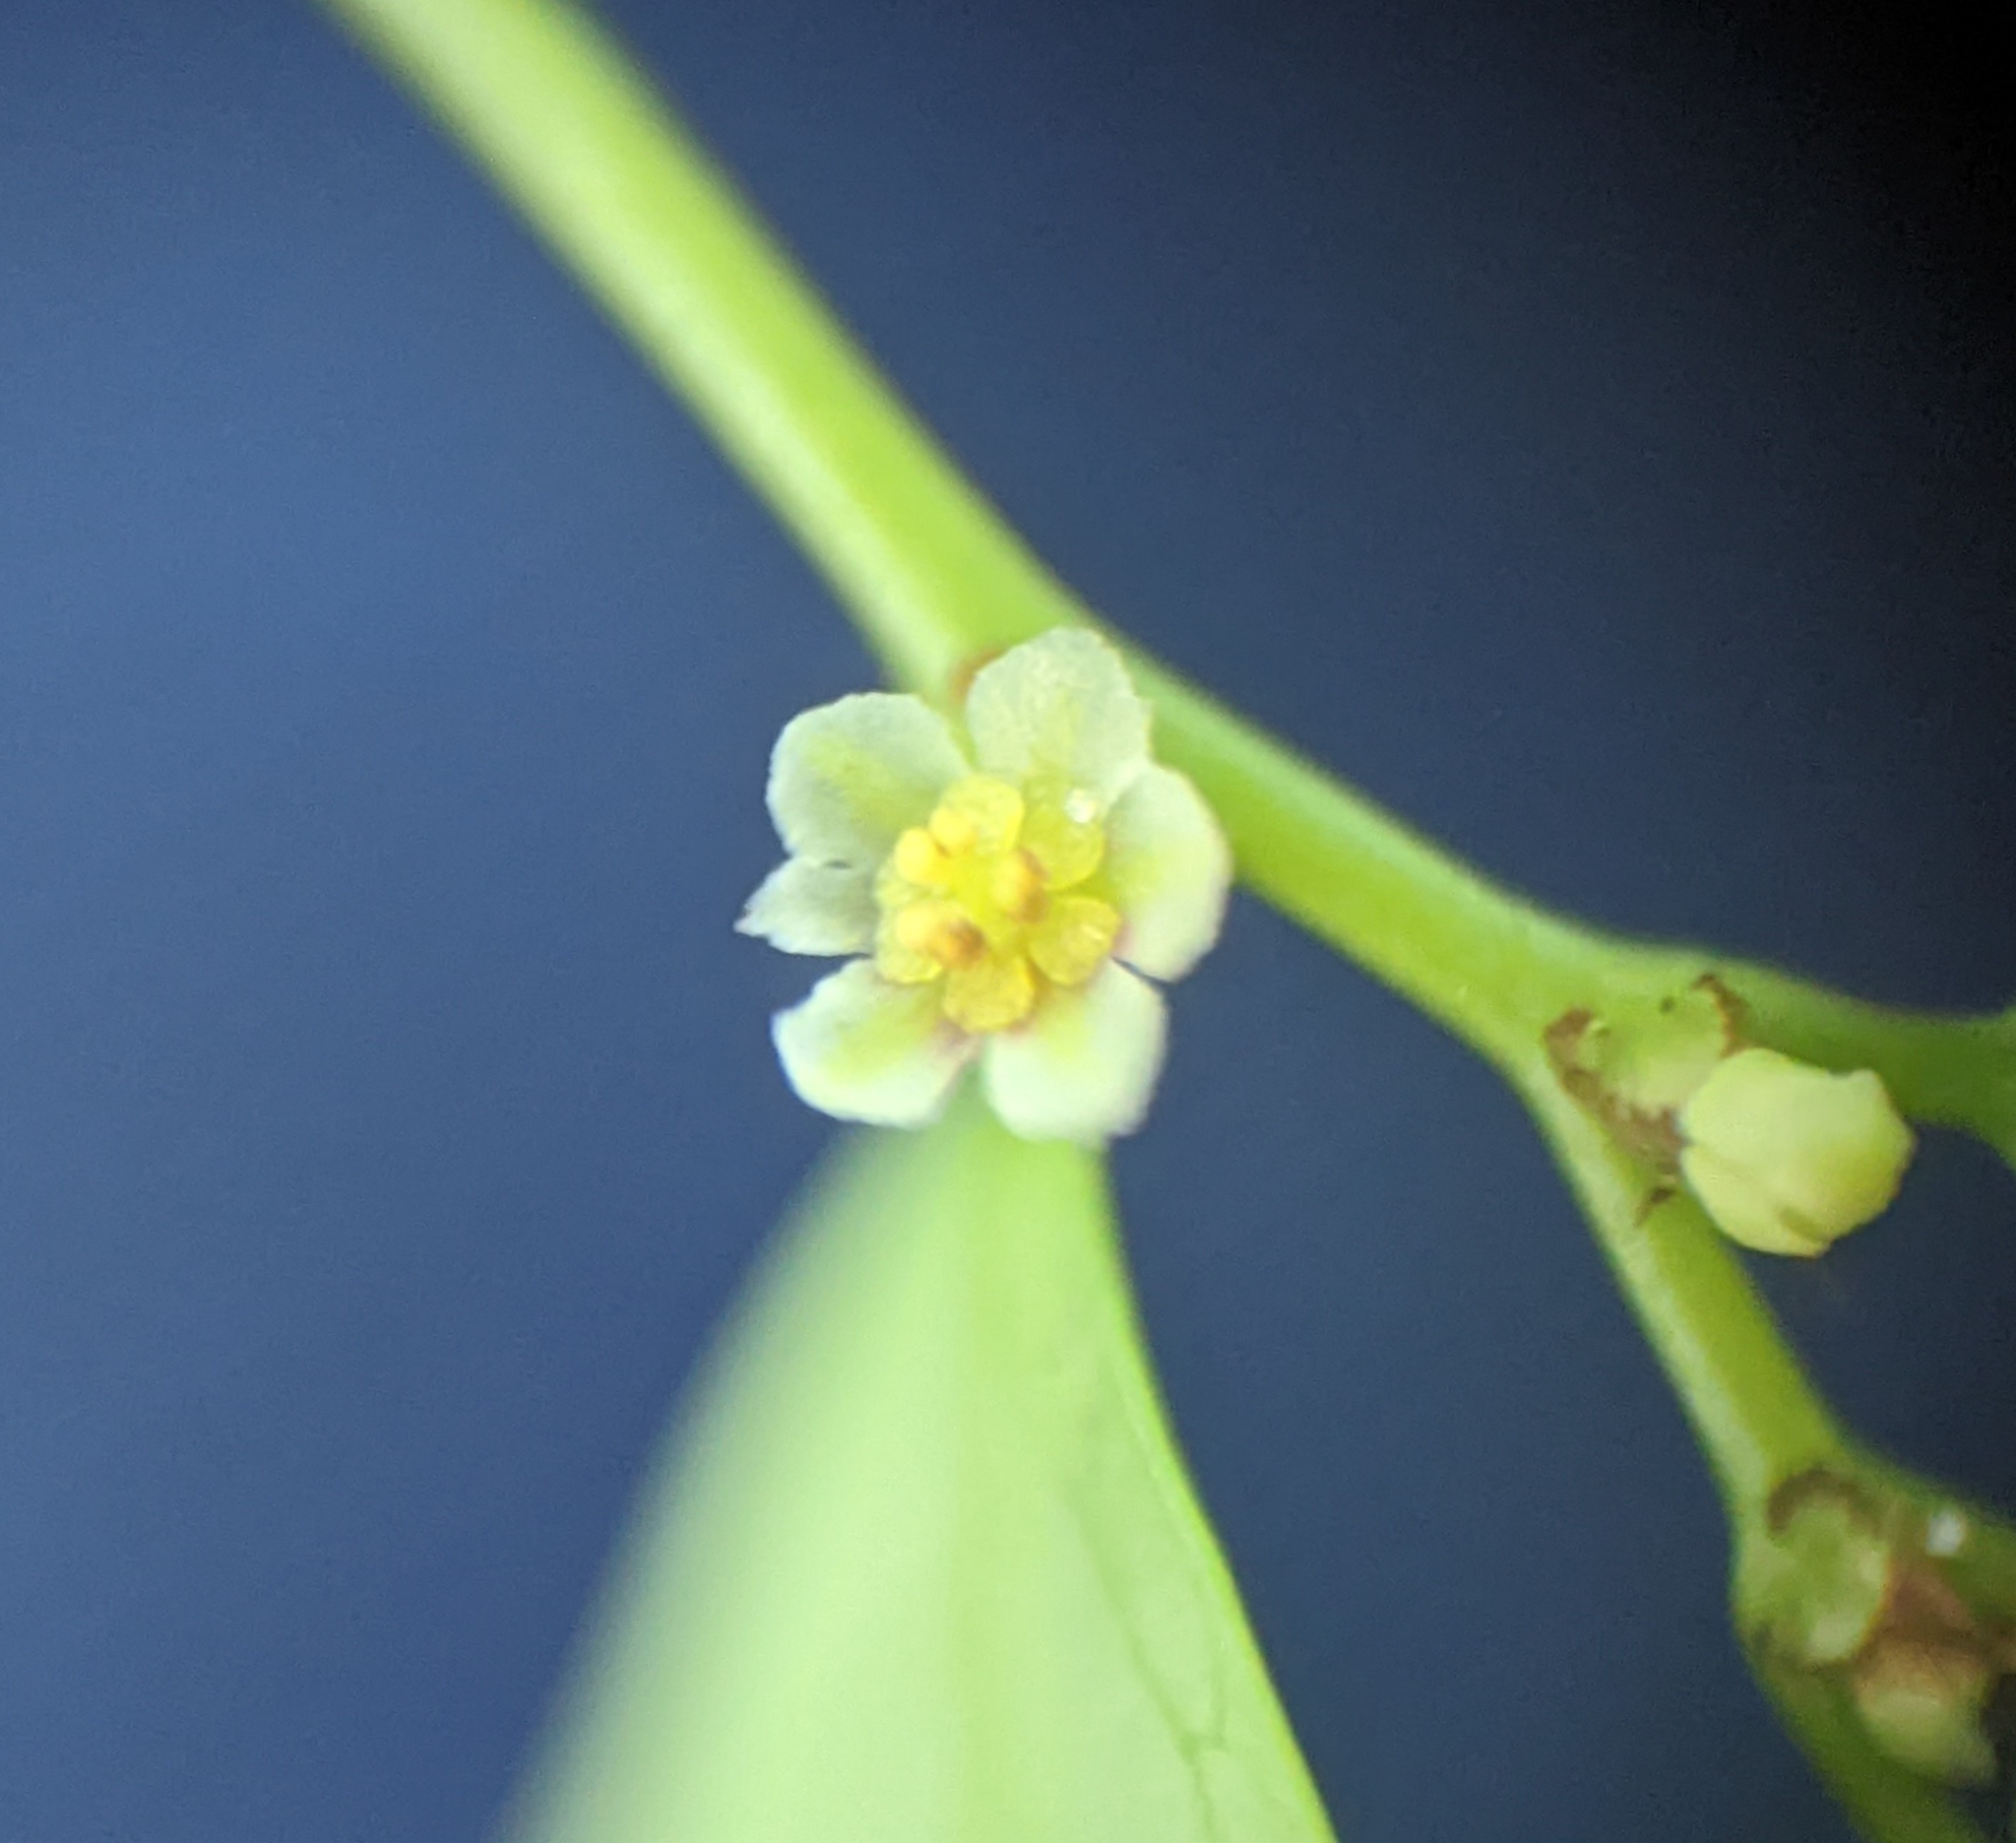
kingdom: Plantae
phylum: Tracheophyta
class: Magnoliopsida
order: Malpighiales
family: Phyllanthaceae
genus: Phyllanthus
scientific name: Phyllanthus caroliniensis
